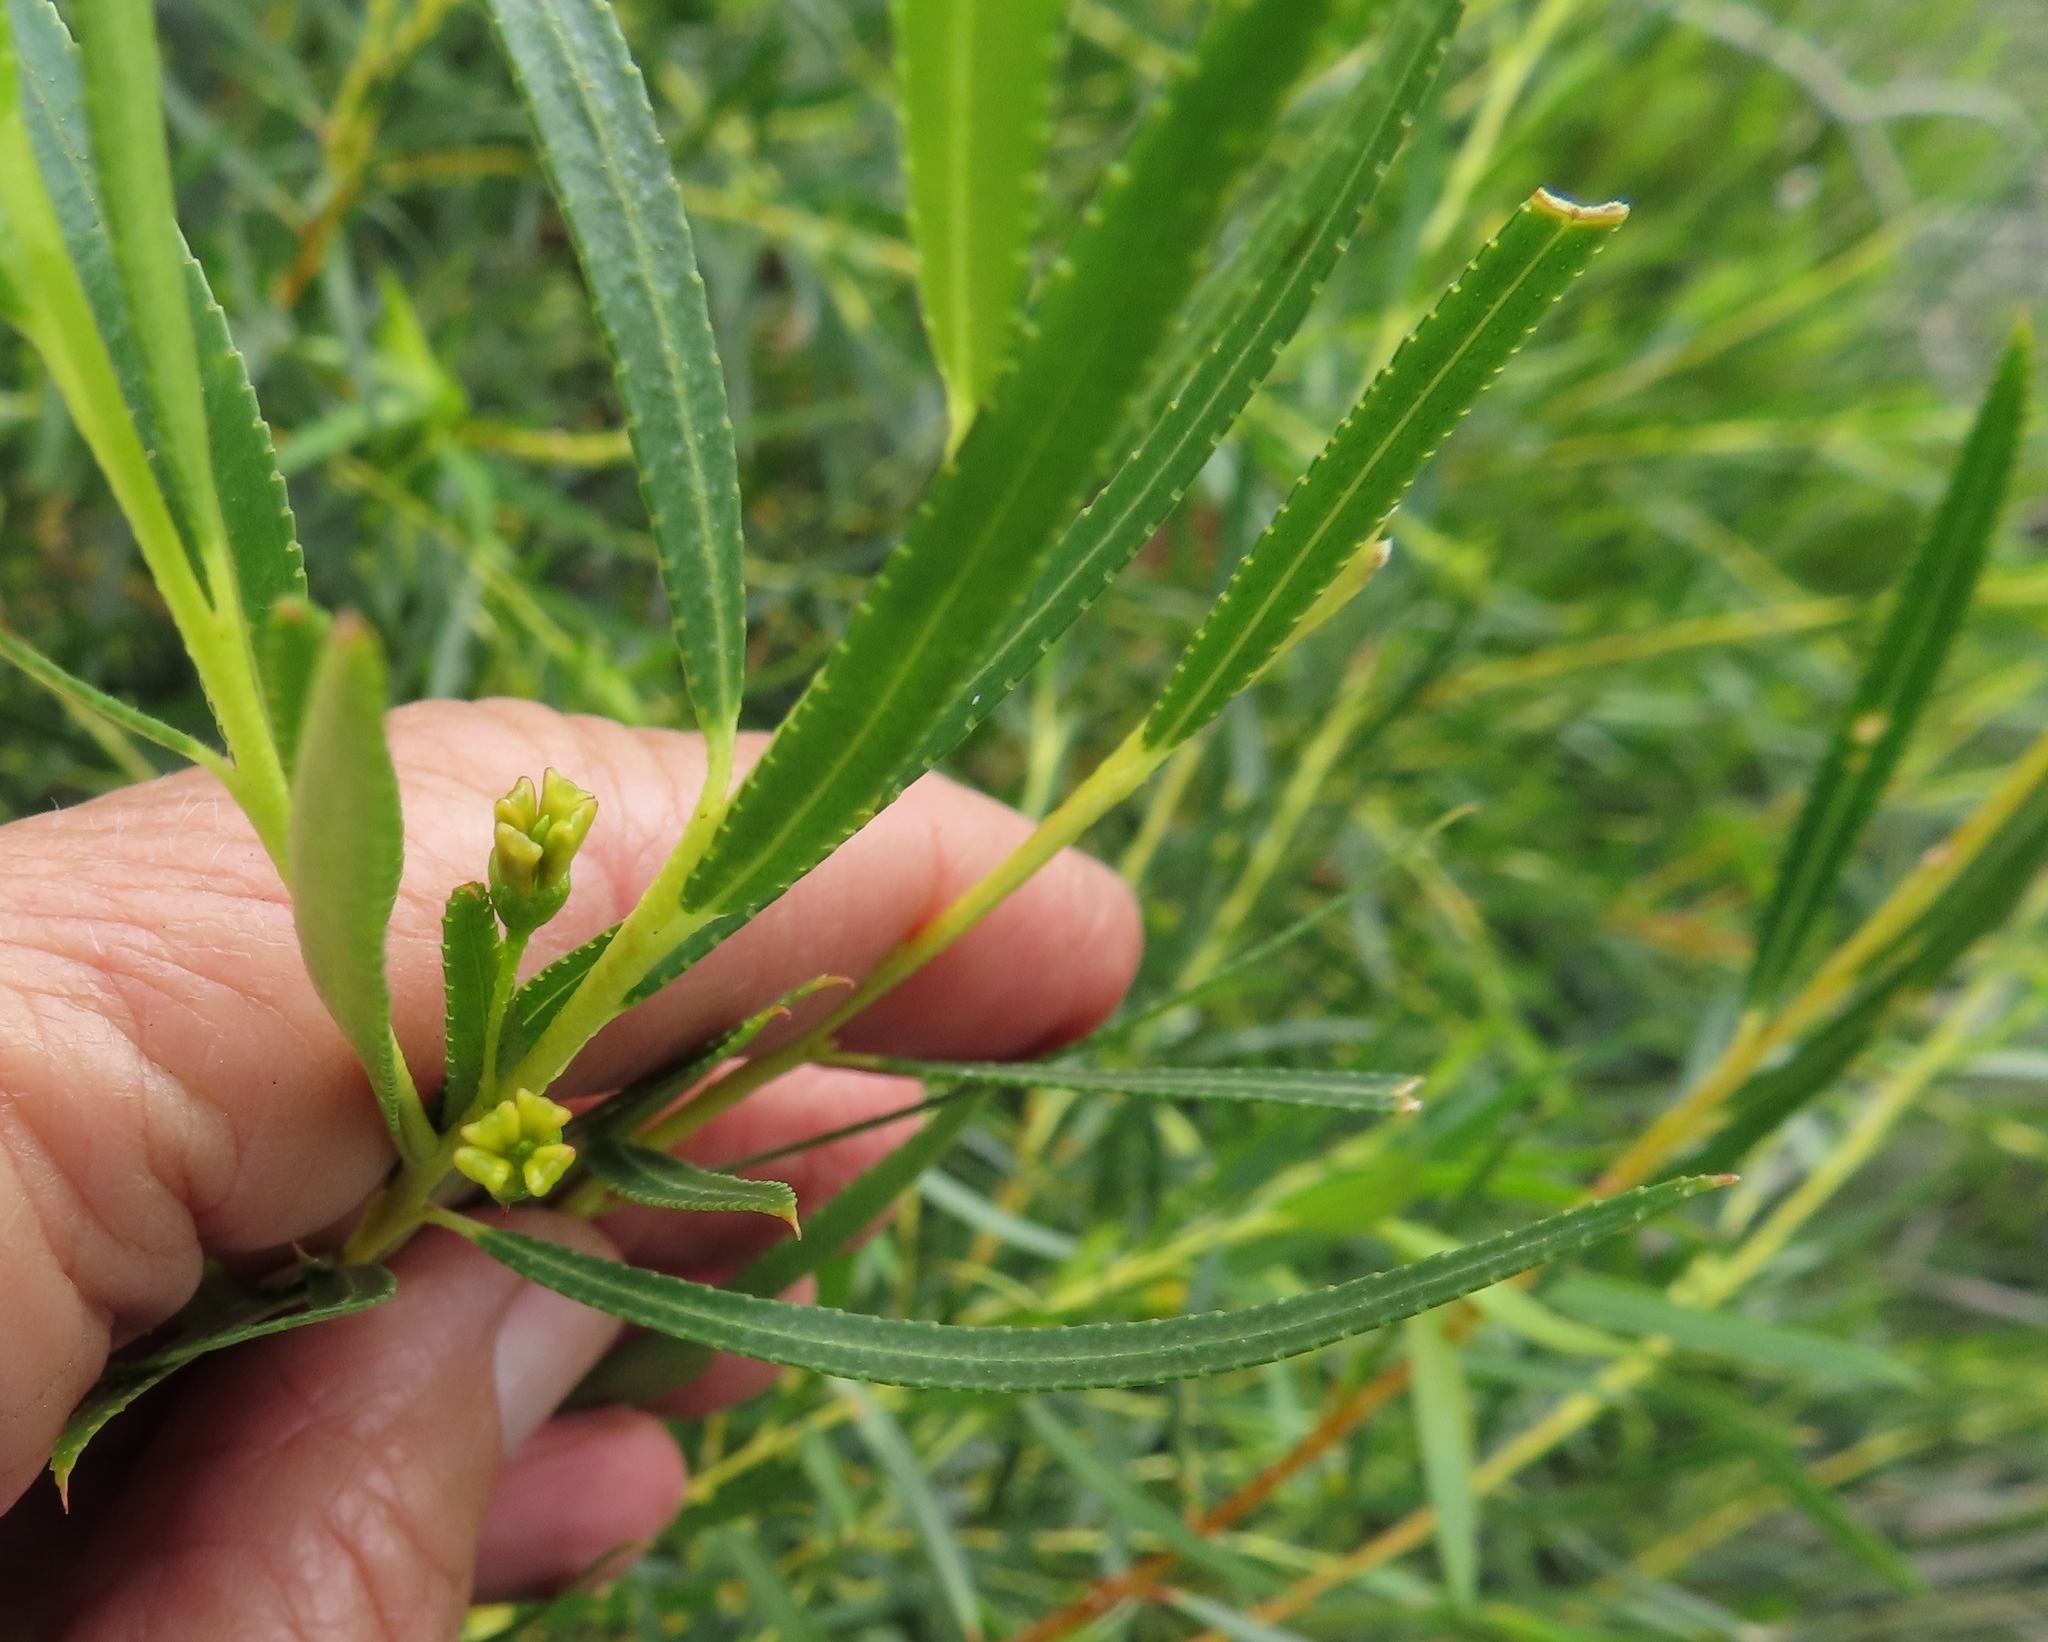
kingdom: Plantae
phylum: Tracheophyta
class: Magnoliopsida
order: Sapindales
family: Rutaceae
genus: Empleurum
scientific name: Empleurum unicapsulare
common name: False buchu
